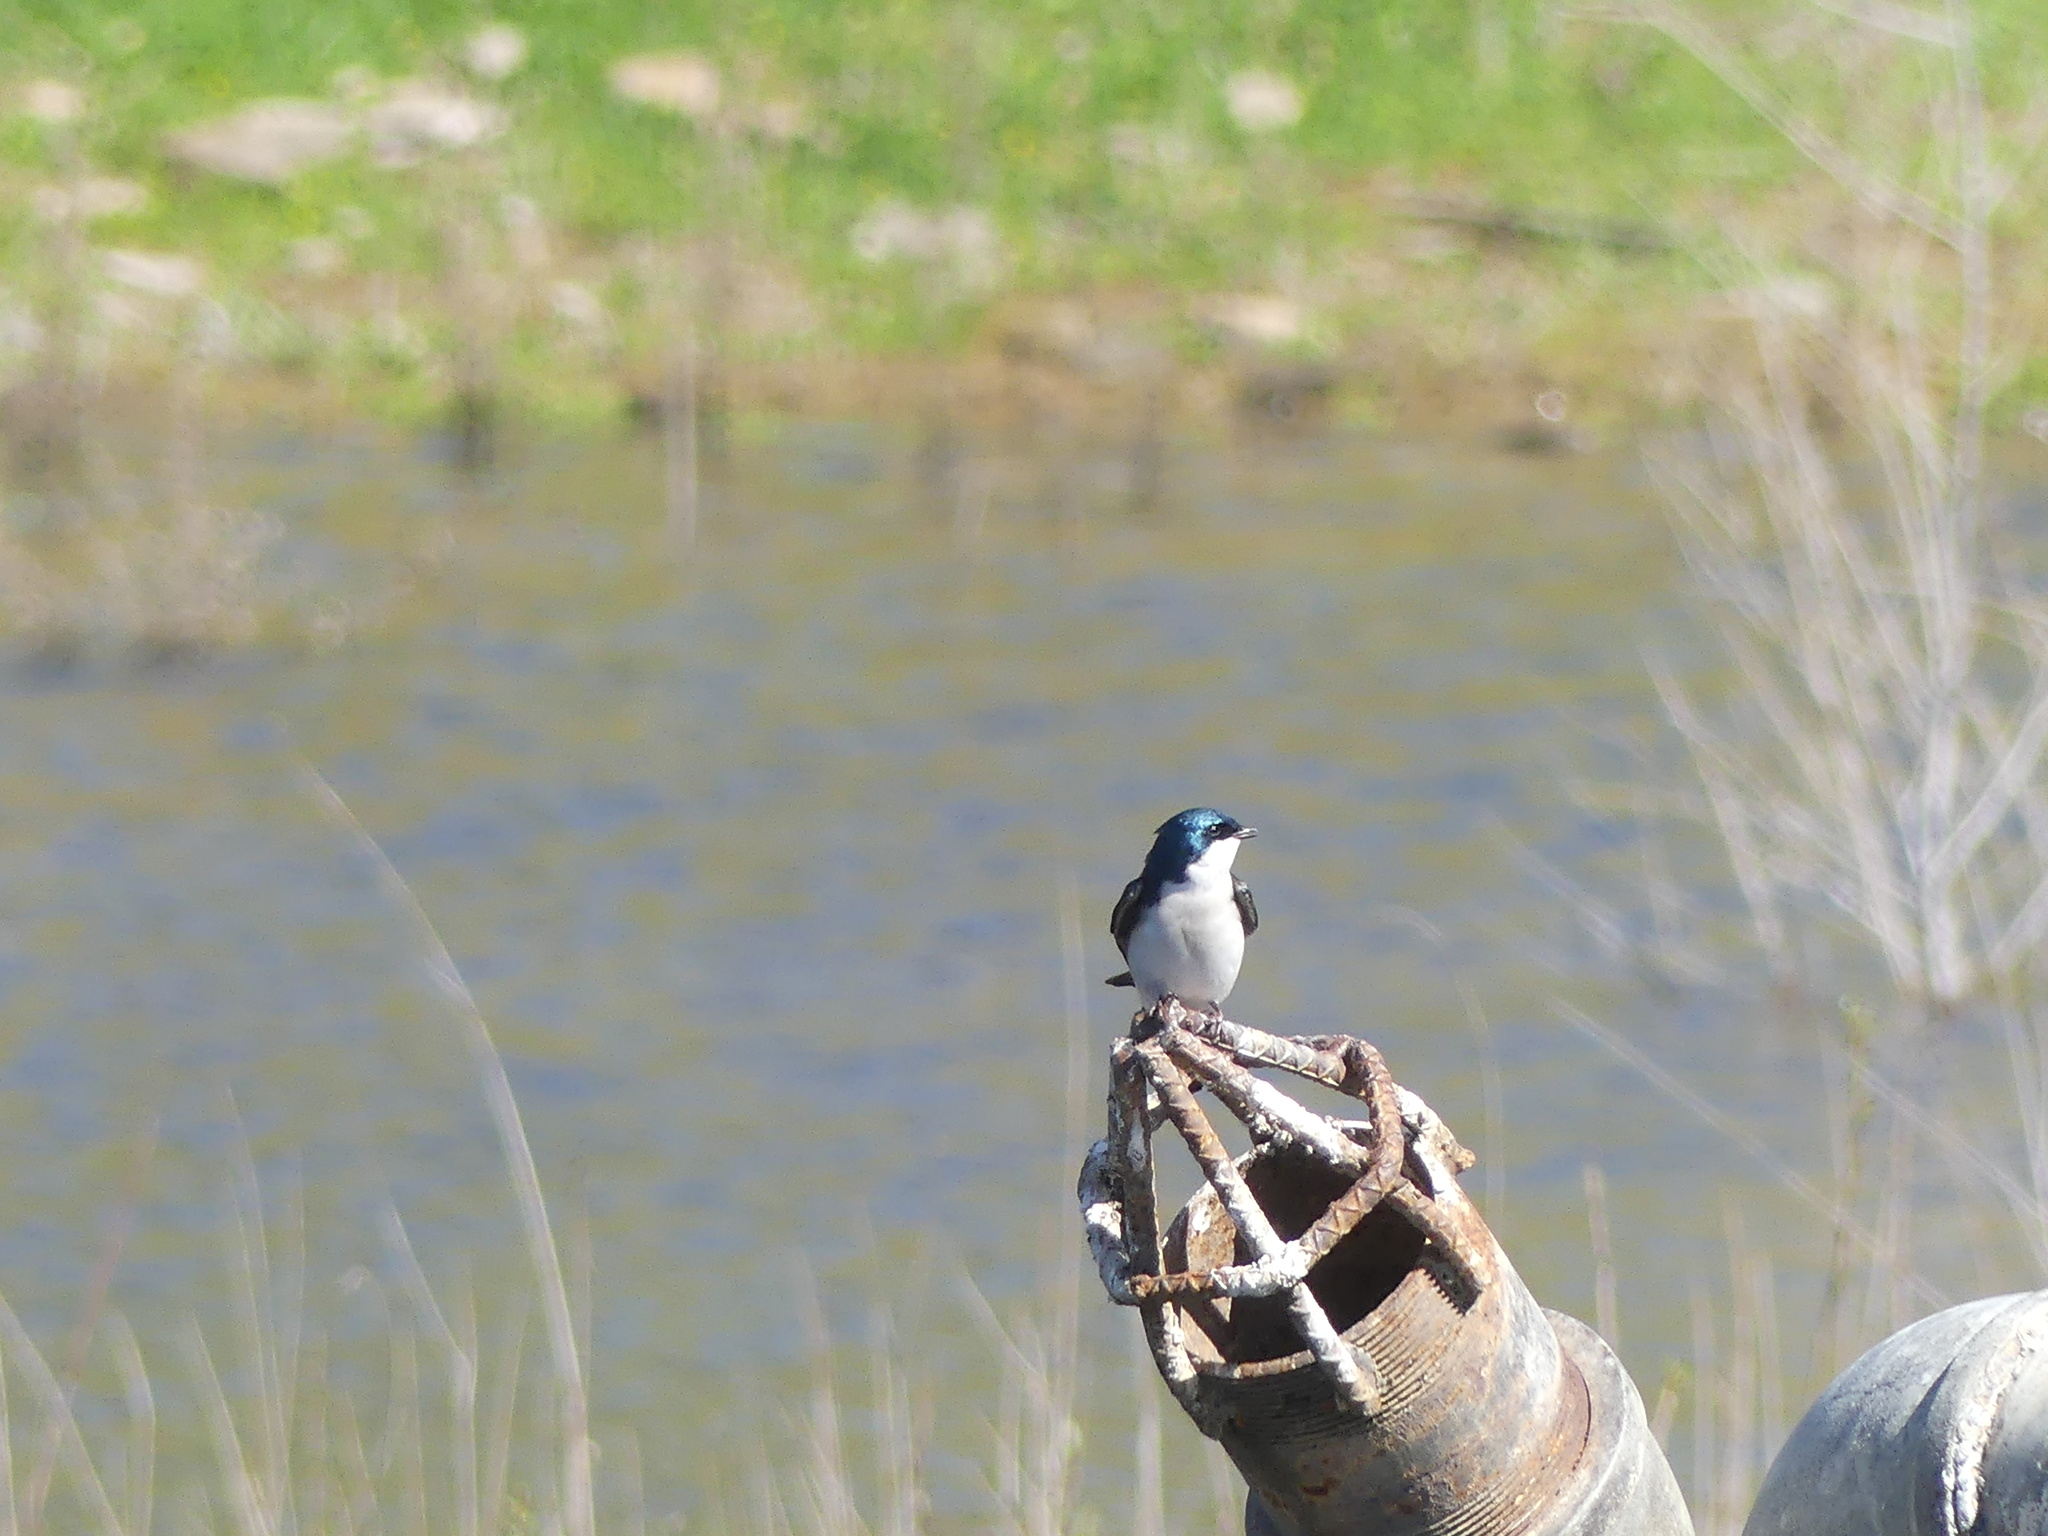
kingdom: Animalia
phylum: Chordata
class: Aves
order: Passeriformes
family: Hirundinidae
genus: Tachycineta
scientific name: Tachycineta bicolor
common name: Tree swallow
